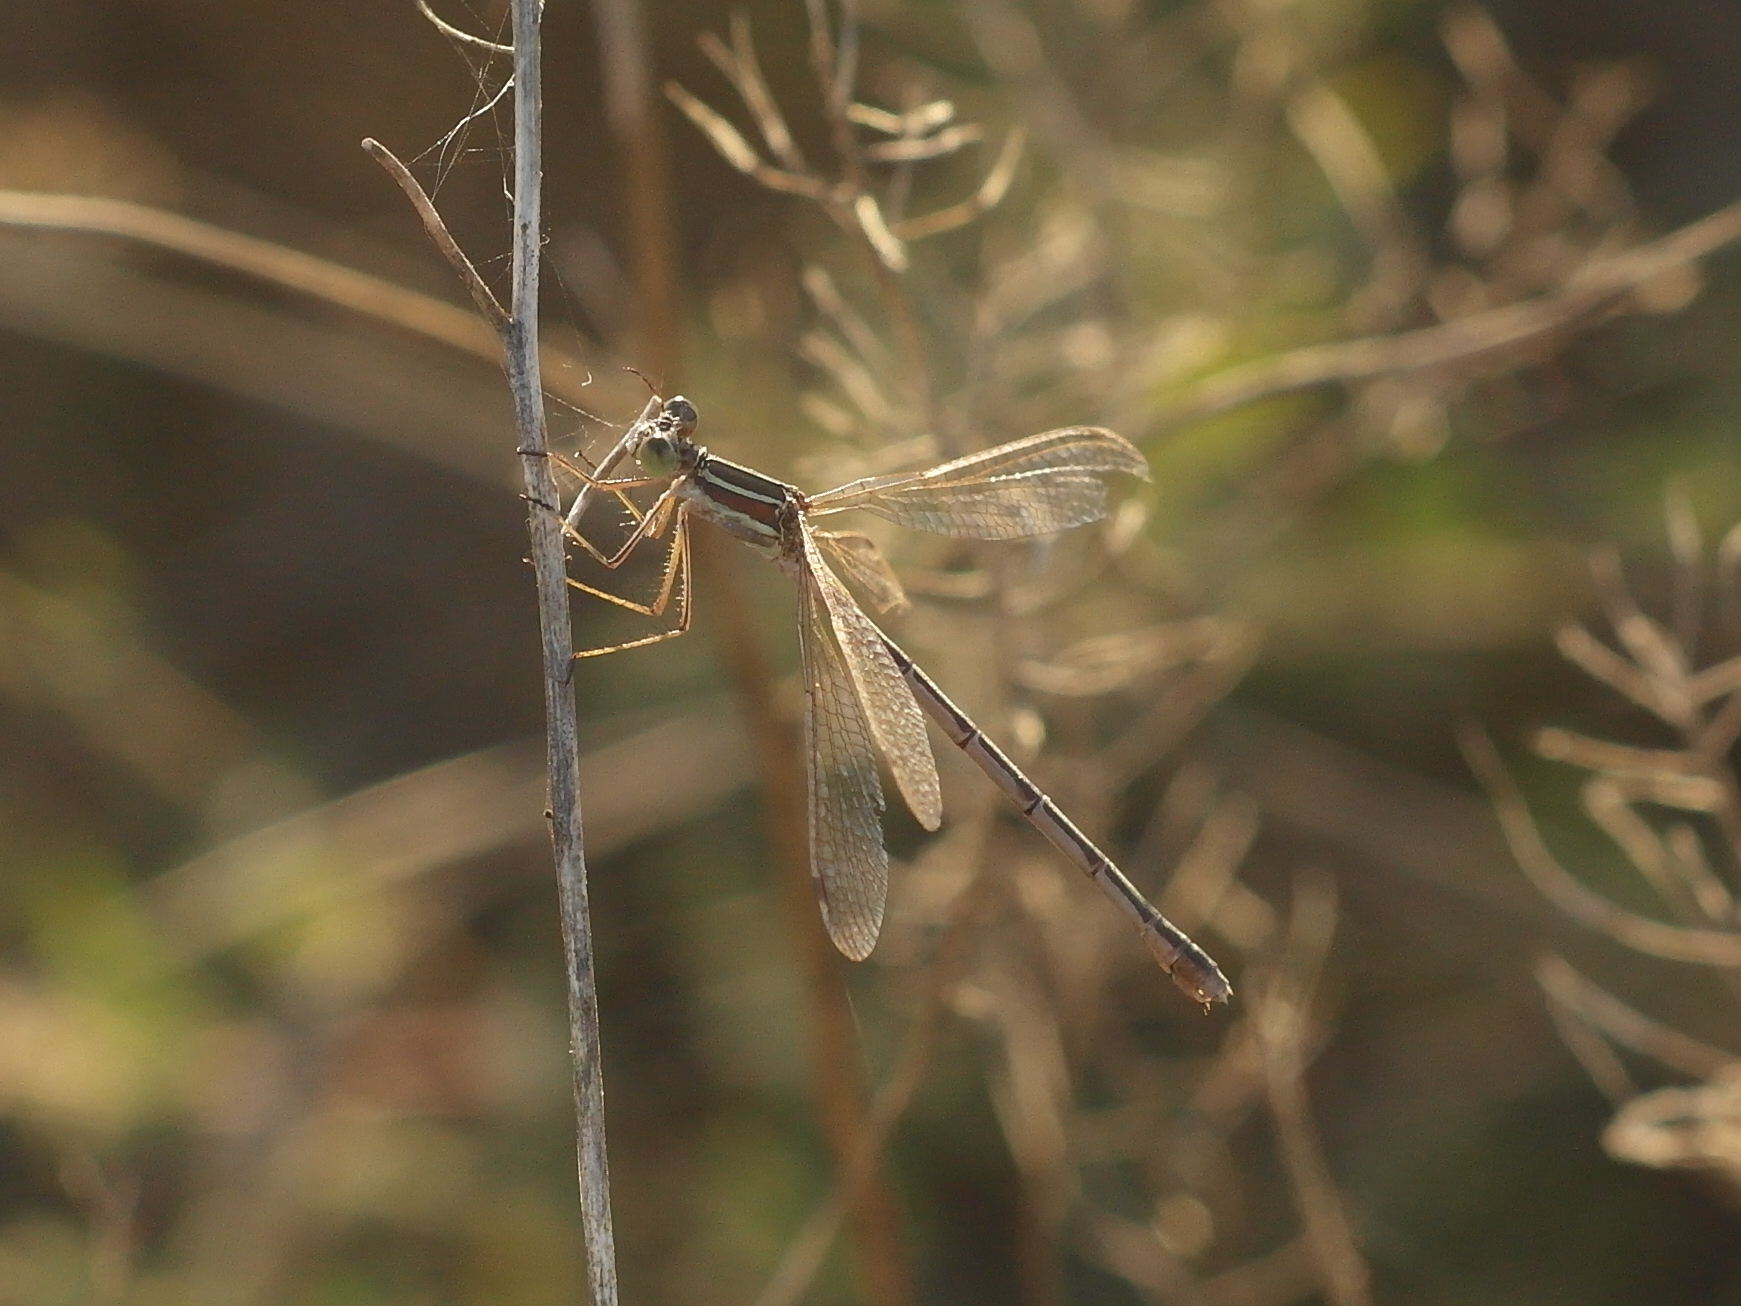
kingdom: Animalia
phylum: Arthropoda
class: Insecta
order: Odonata
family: Lestidae
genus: Lestes
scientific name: Lestes barbarus
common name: Migrant spreadwing
